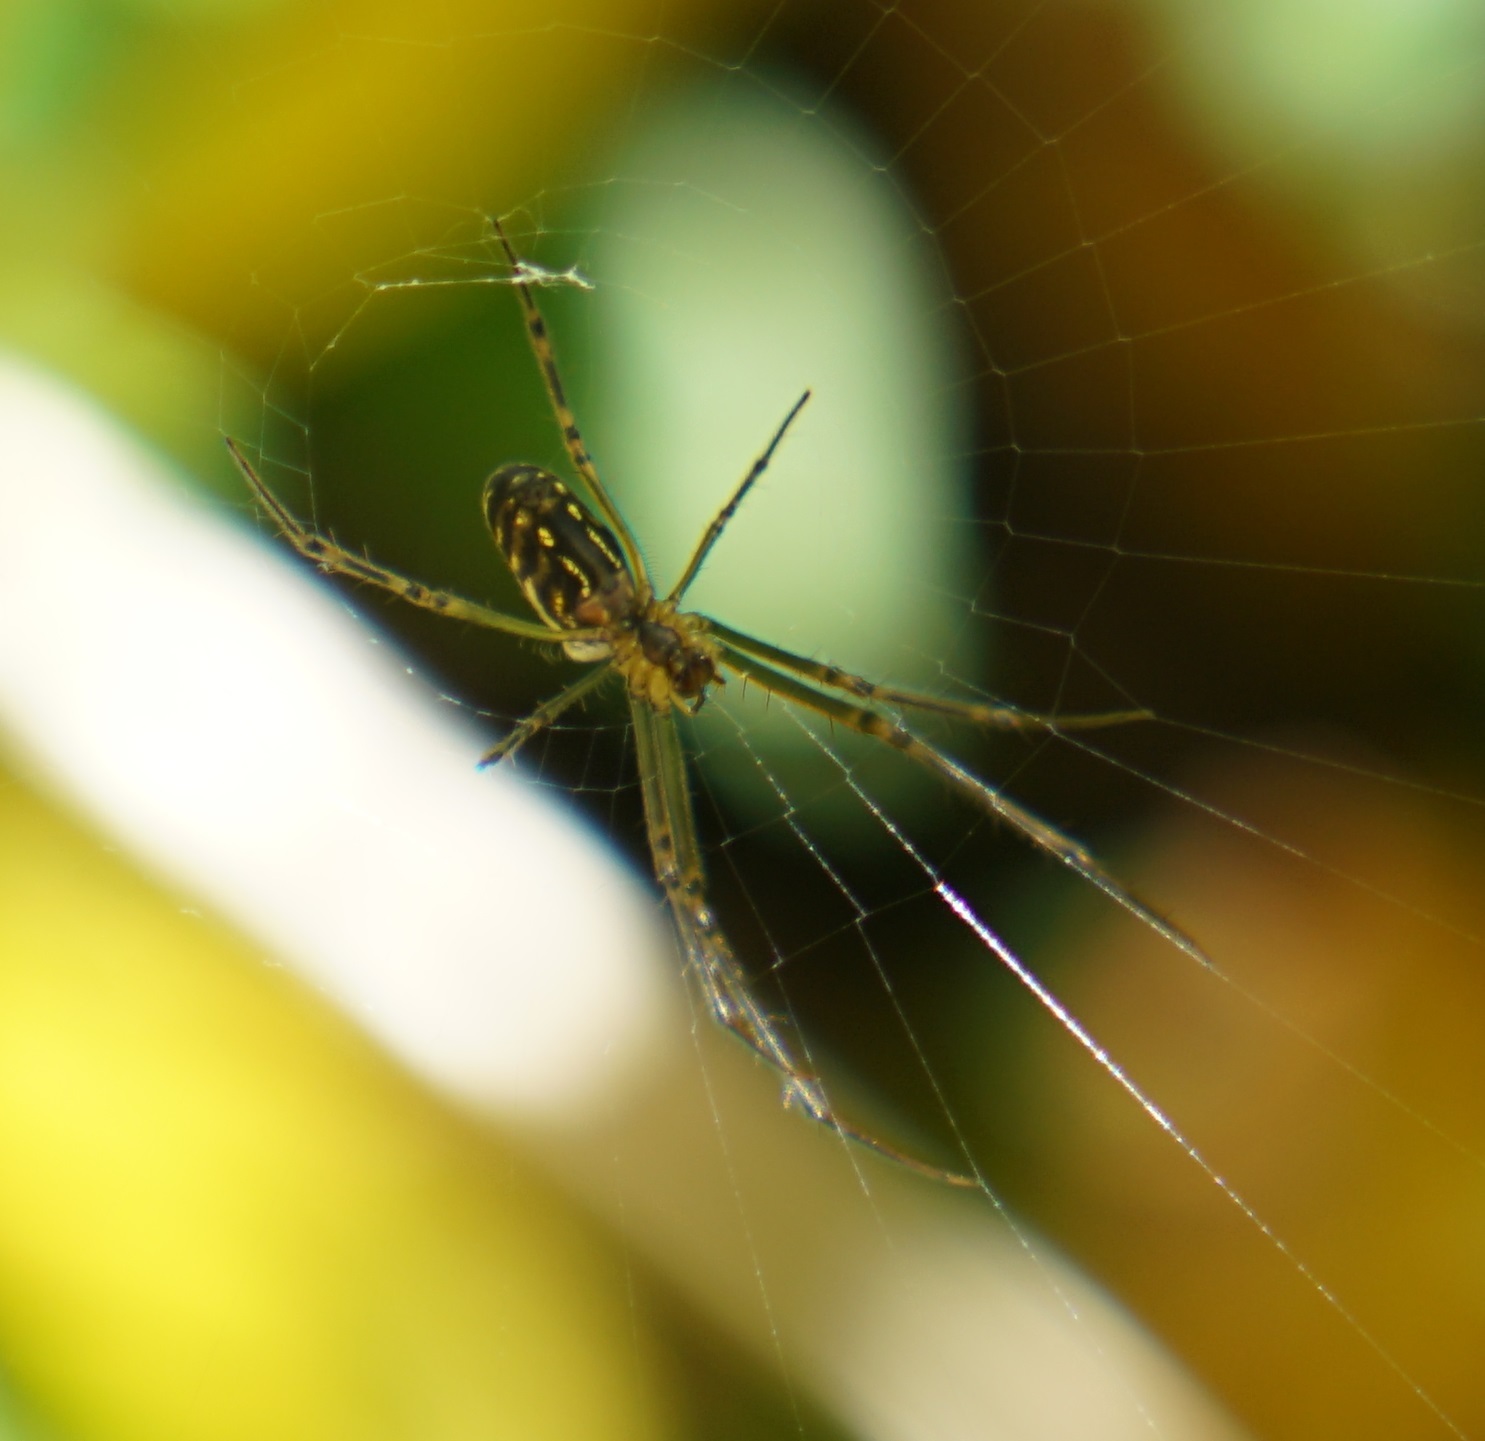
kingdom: Animalia
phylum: Arthropoda
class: Arachnida
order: Araneae
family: Tetragnathidae
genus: Leucauge
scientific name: Leucauge dromedaria
